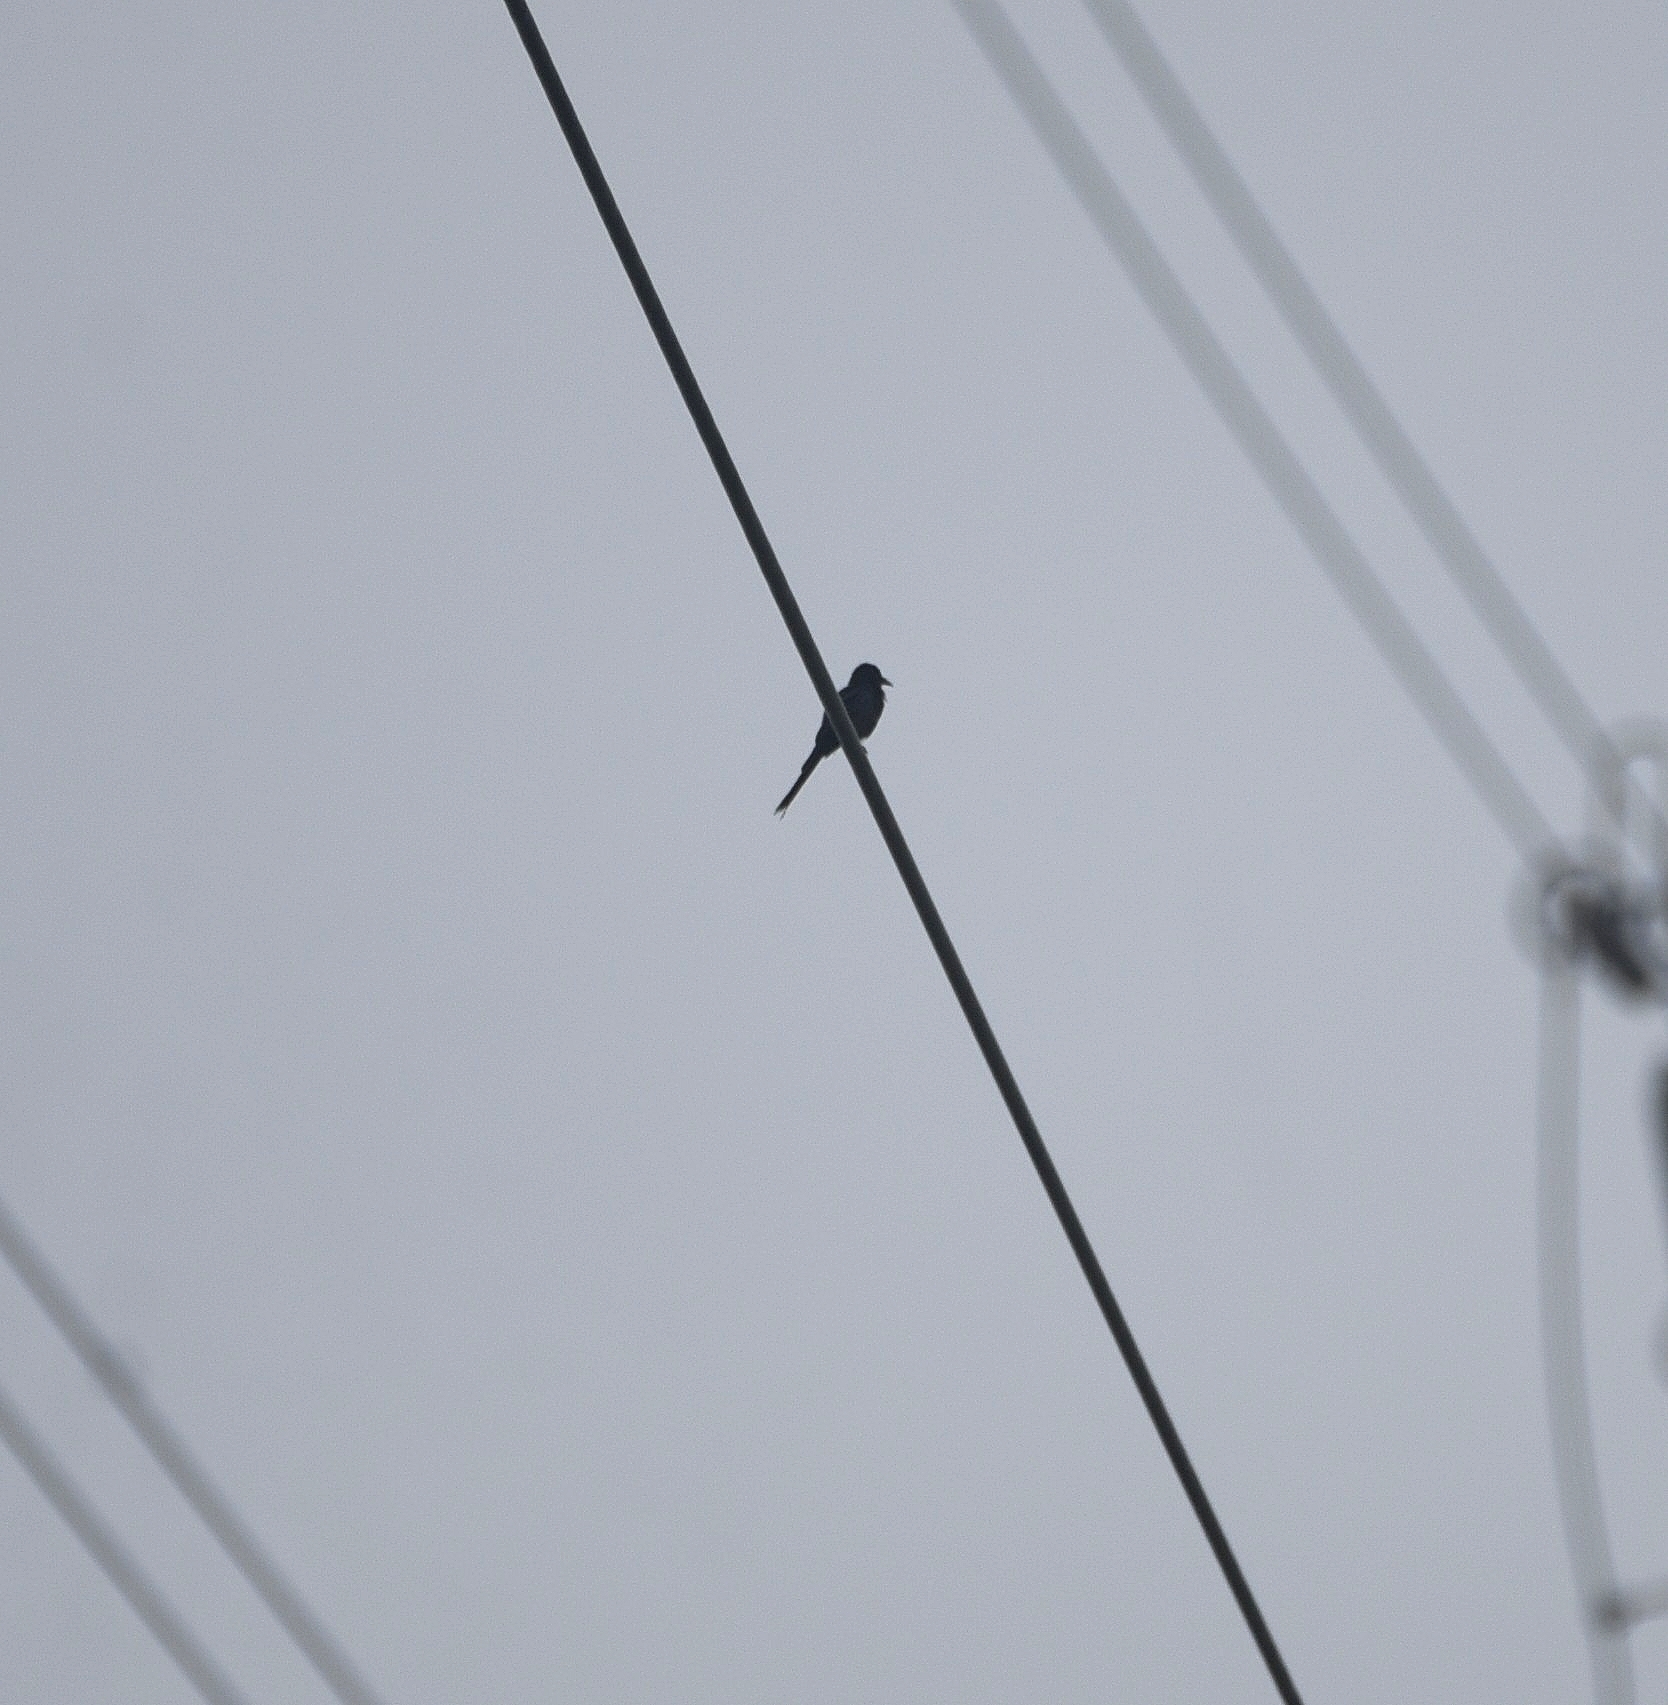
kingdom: Animalia
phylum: Chordata
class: Aves
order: Passeriformes
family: Dicruridae
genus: Dicrurus
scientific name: Dicrurus macrocercus
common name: Black drongo
